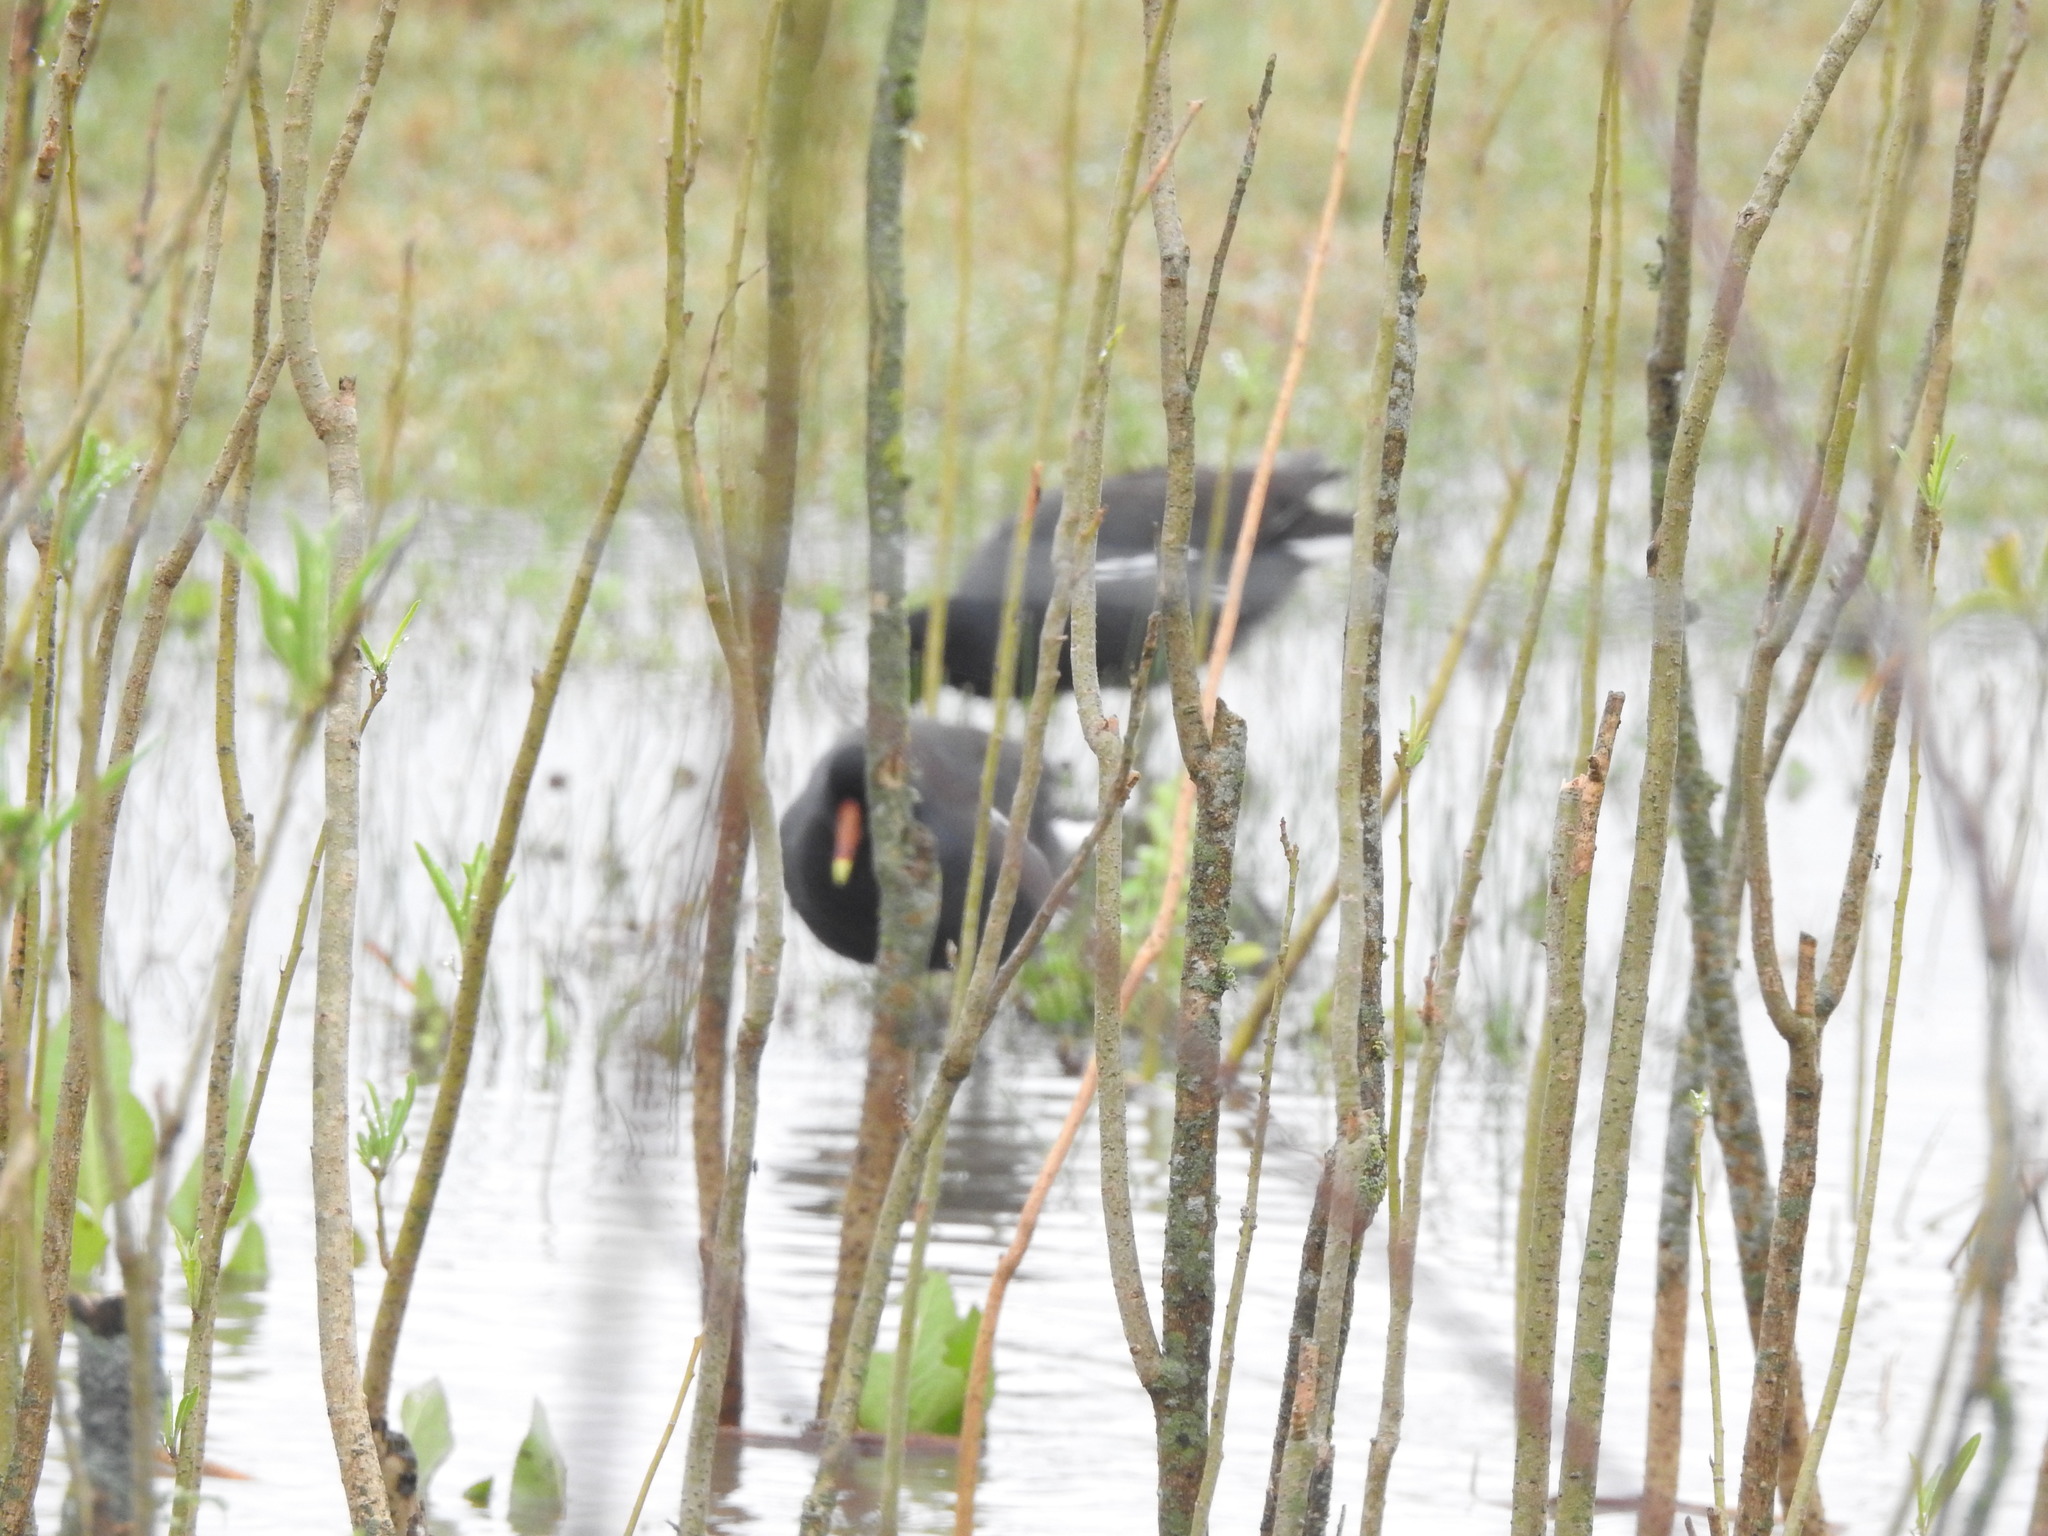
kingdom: Animalia
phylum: Chordata
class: Aves
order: Gruiformes
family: Rallidae
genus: Gallinula
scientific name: Gallinula chloropus
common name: Common moorhen
